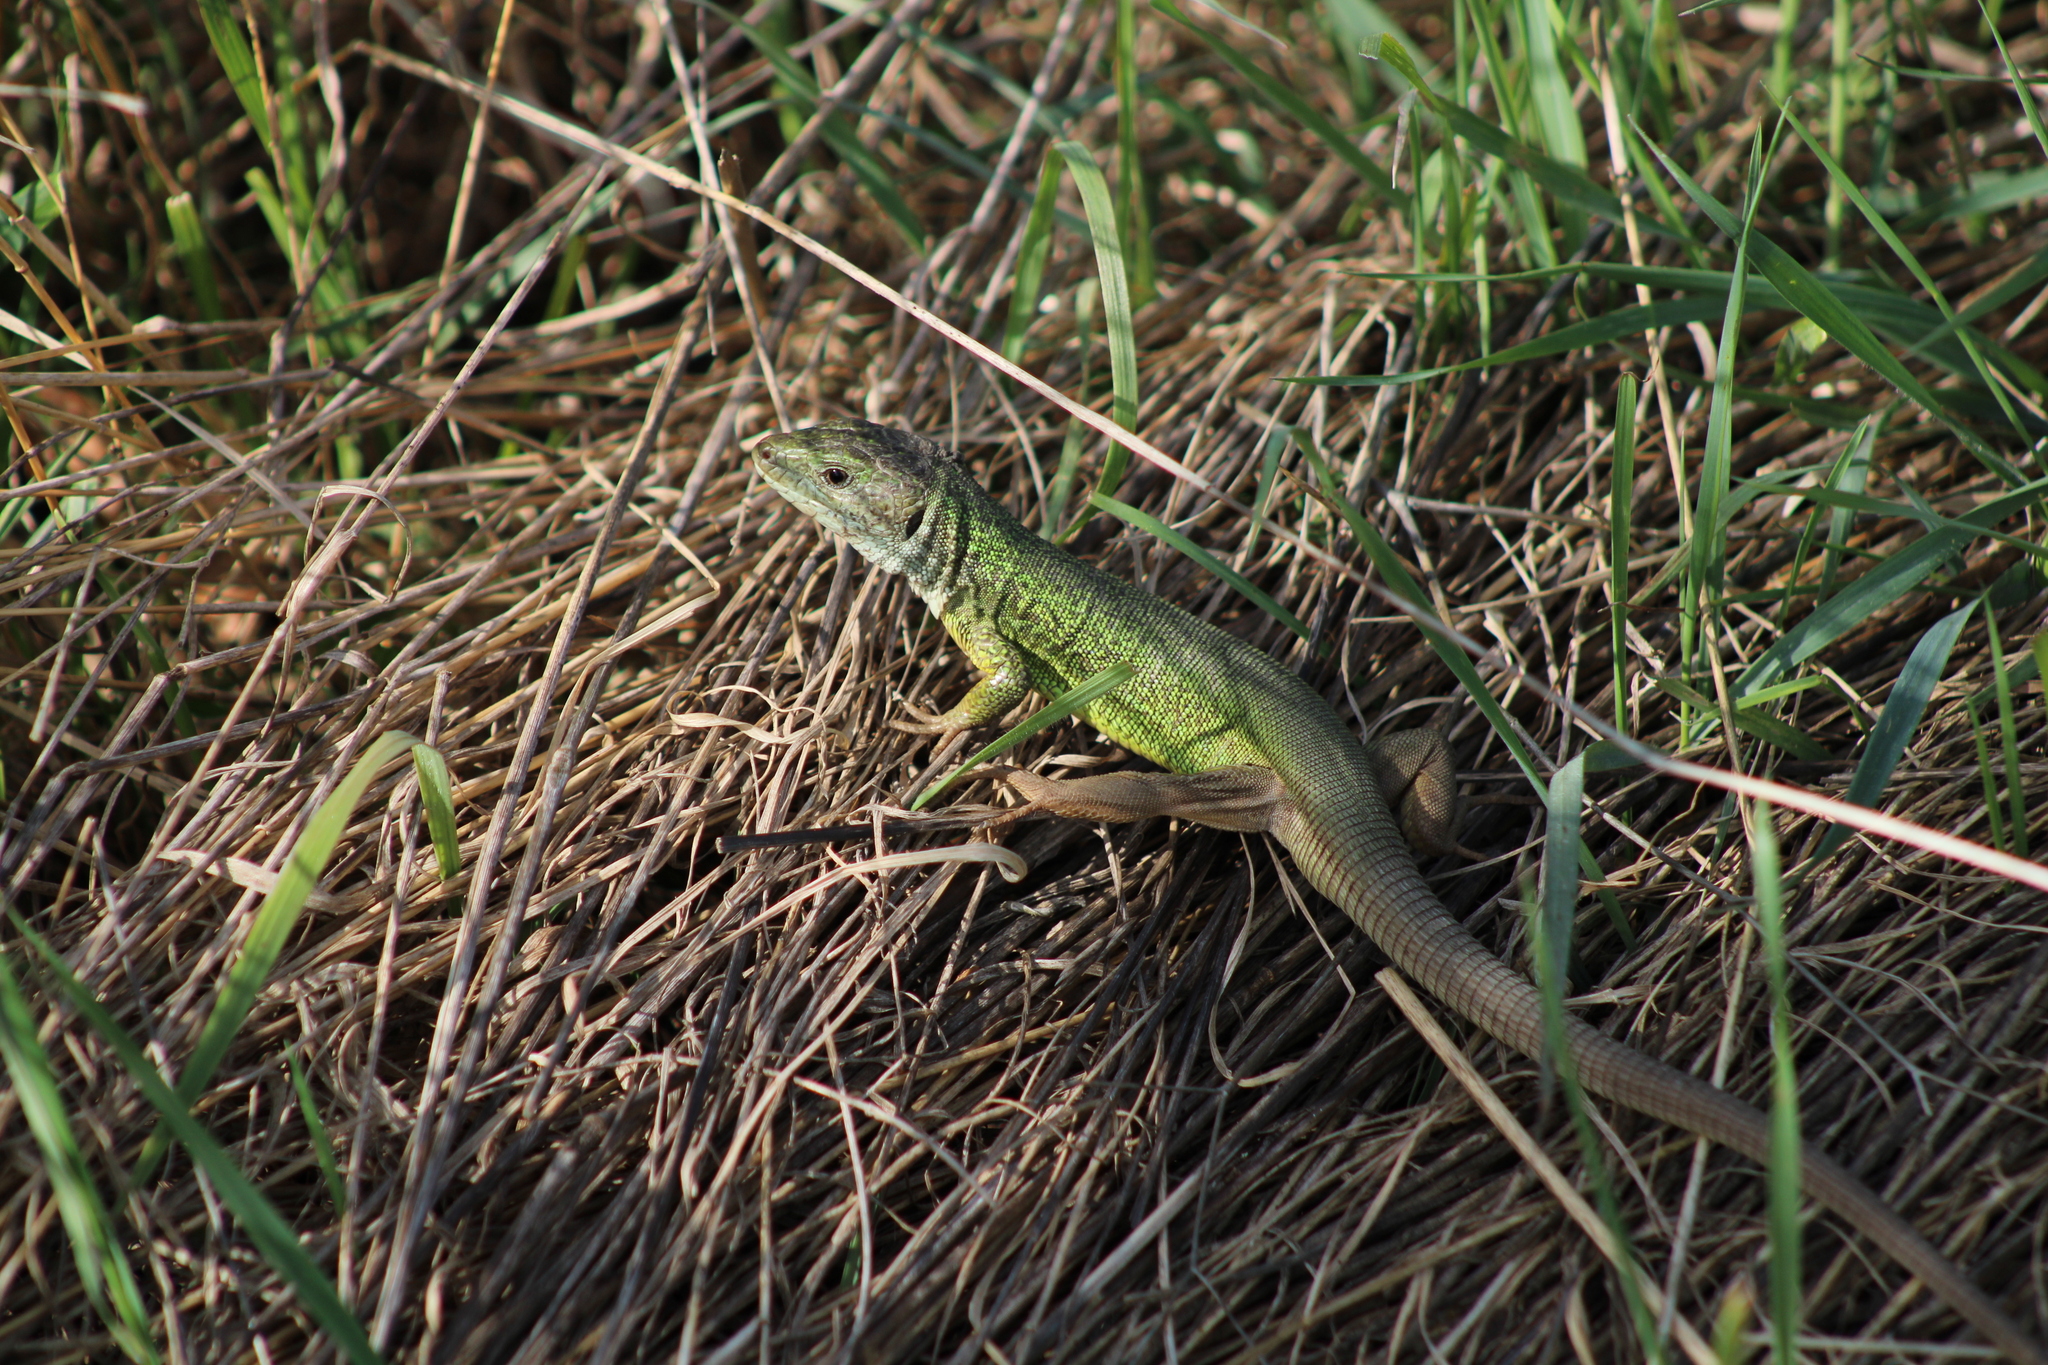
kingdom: Animalia
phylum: Chordata
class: Squamata
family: Lacertidae
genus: Lacerta
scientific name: Lacerta viridis
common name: European green lizard
